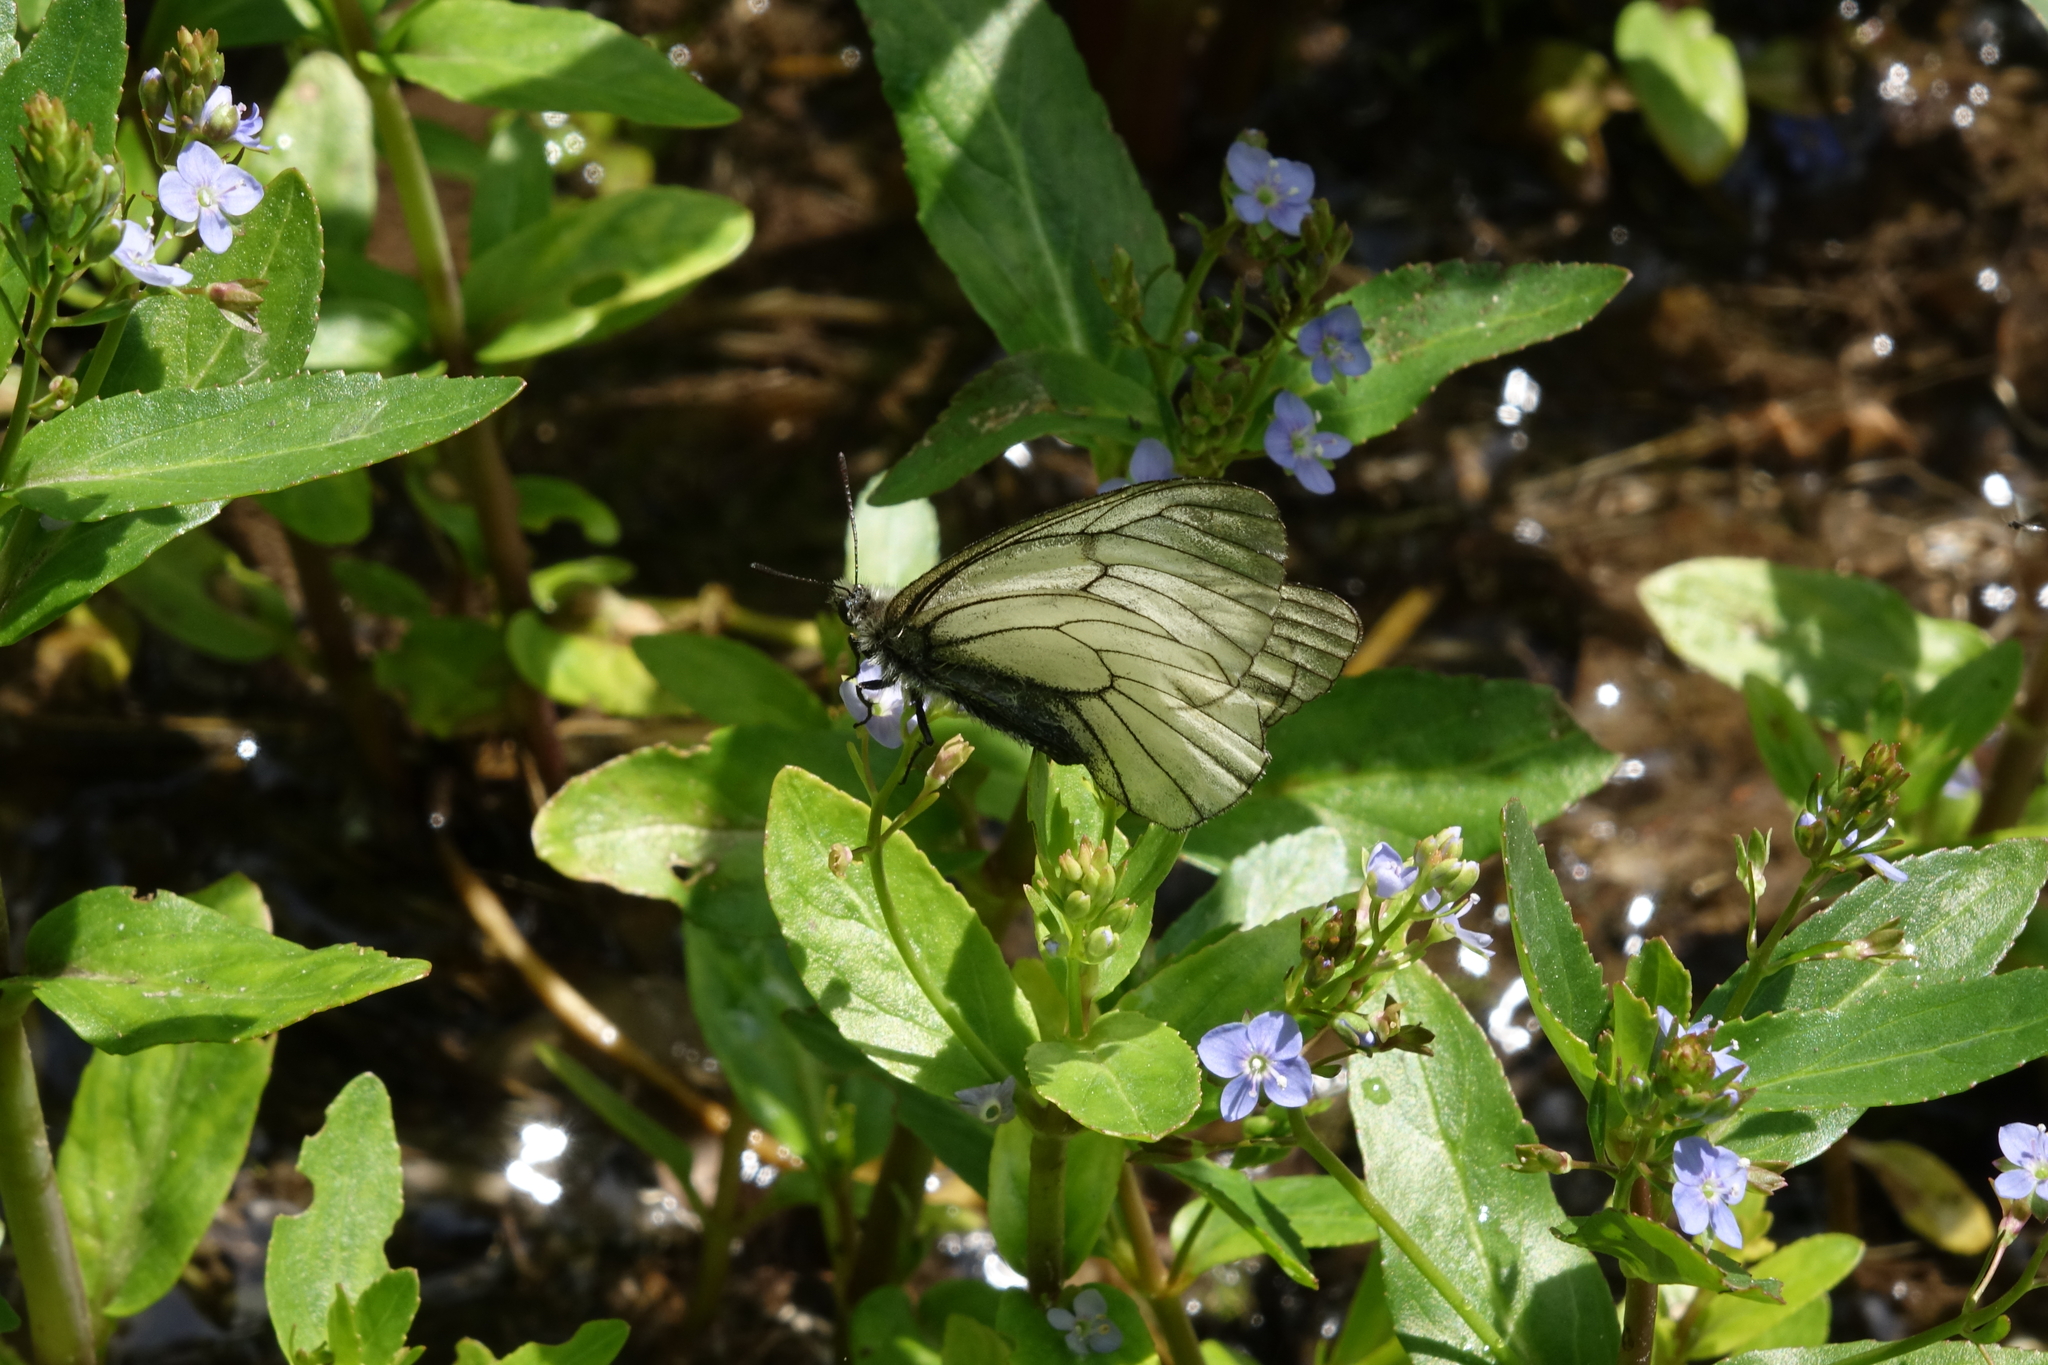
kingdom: Animalia
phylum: Arthropoda
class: Insecta
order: Lepidoptera
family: Papilionidae
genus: Parnassius
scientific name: Parnassius stubbendorfii
